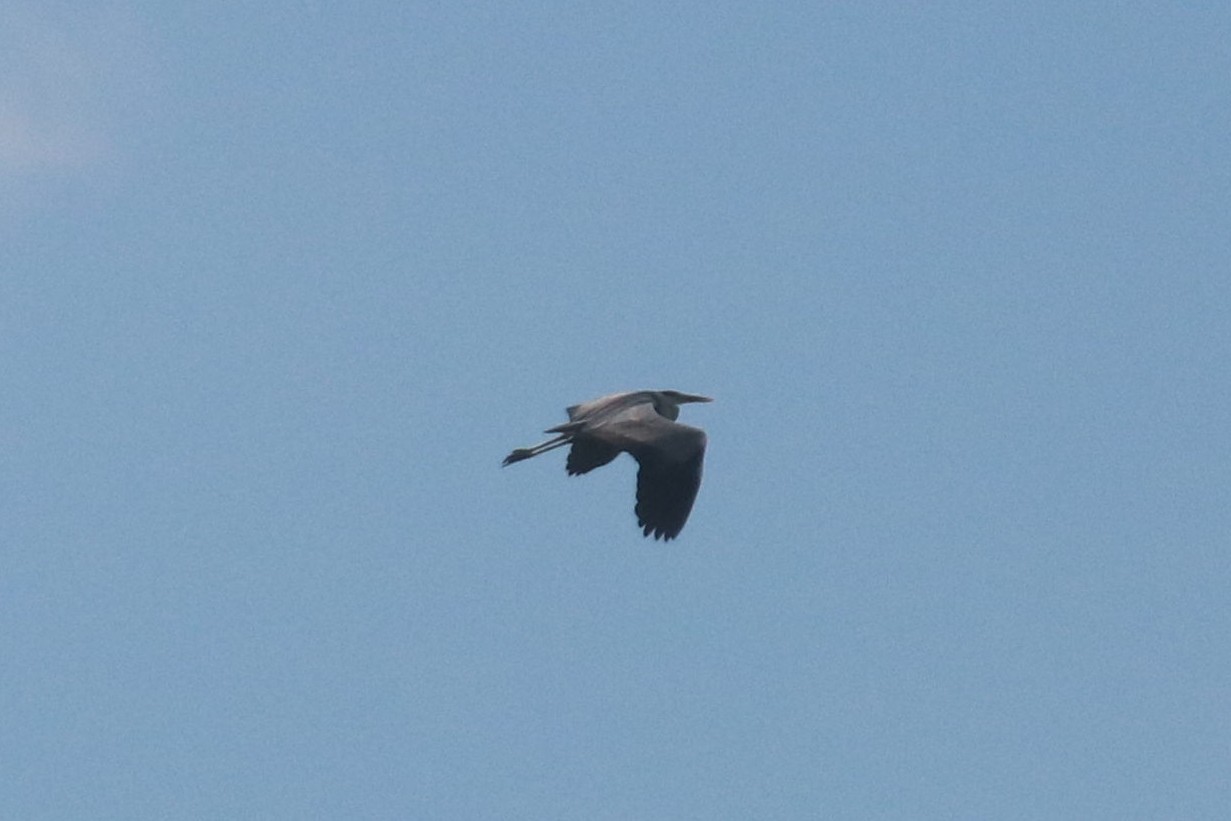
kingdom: Animalia
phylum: Chordata
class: Aves
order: Pelecaniformes
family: Ardeidae
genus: Ardea
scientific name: Ardea cinerea
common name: Grey heron
